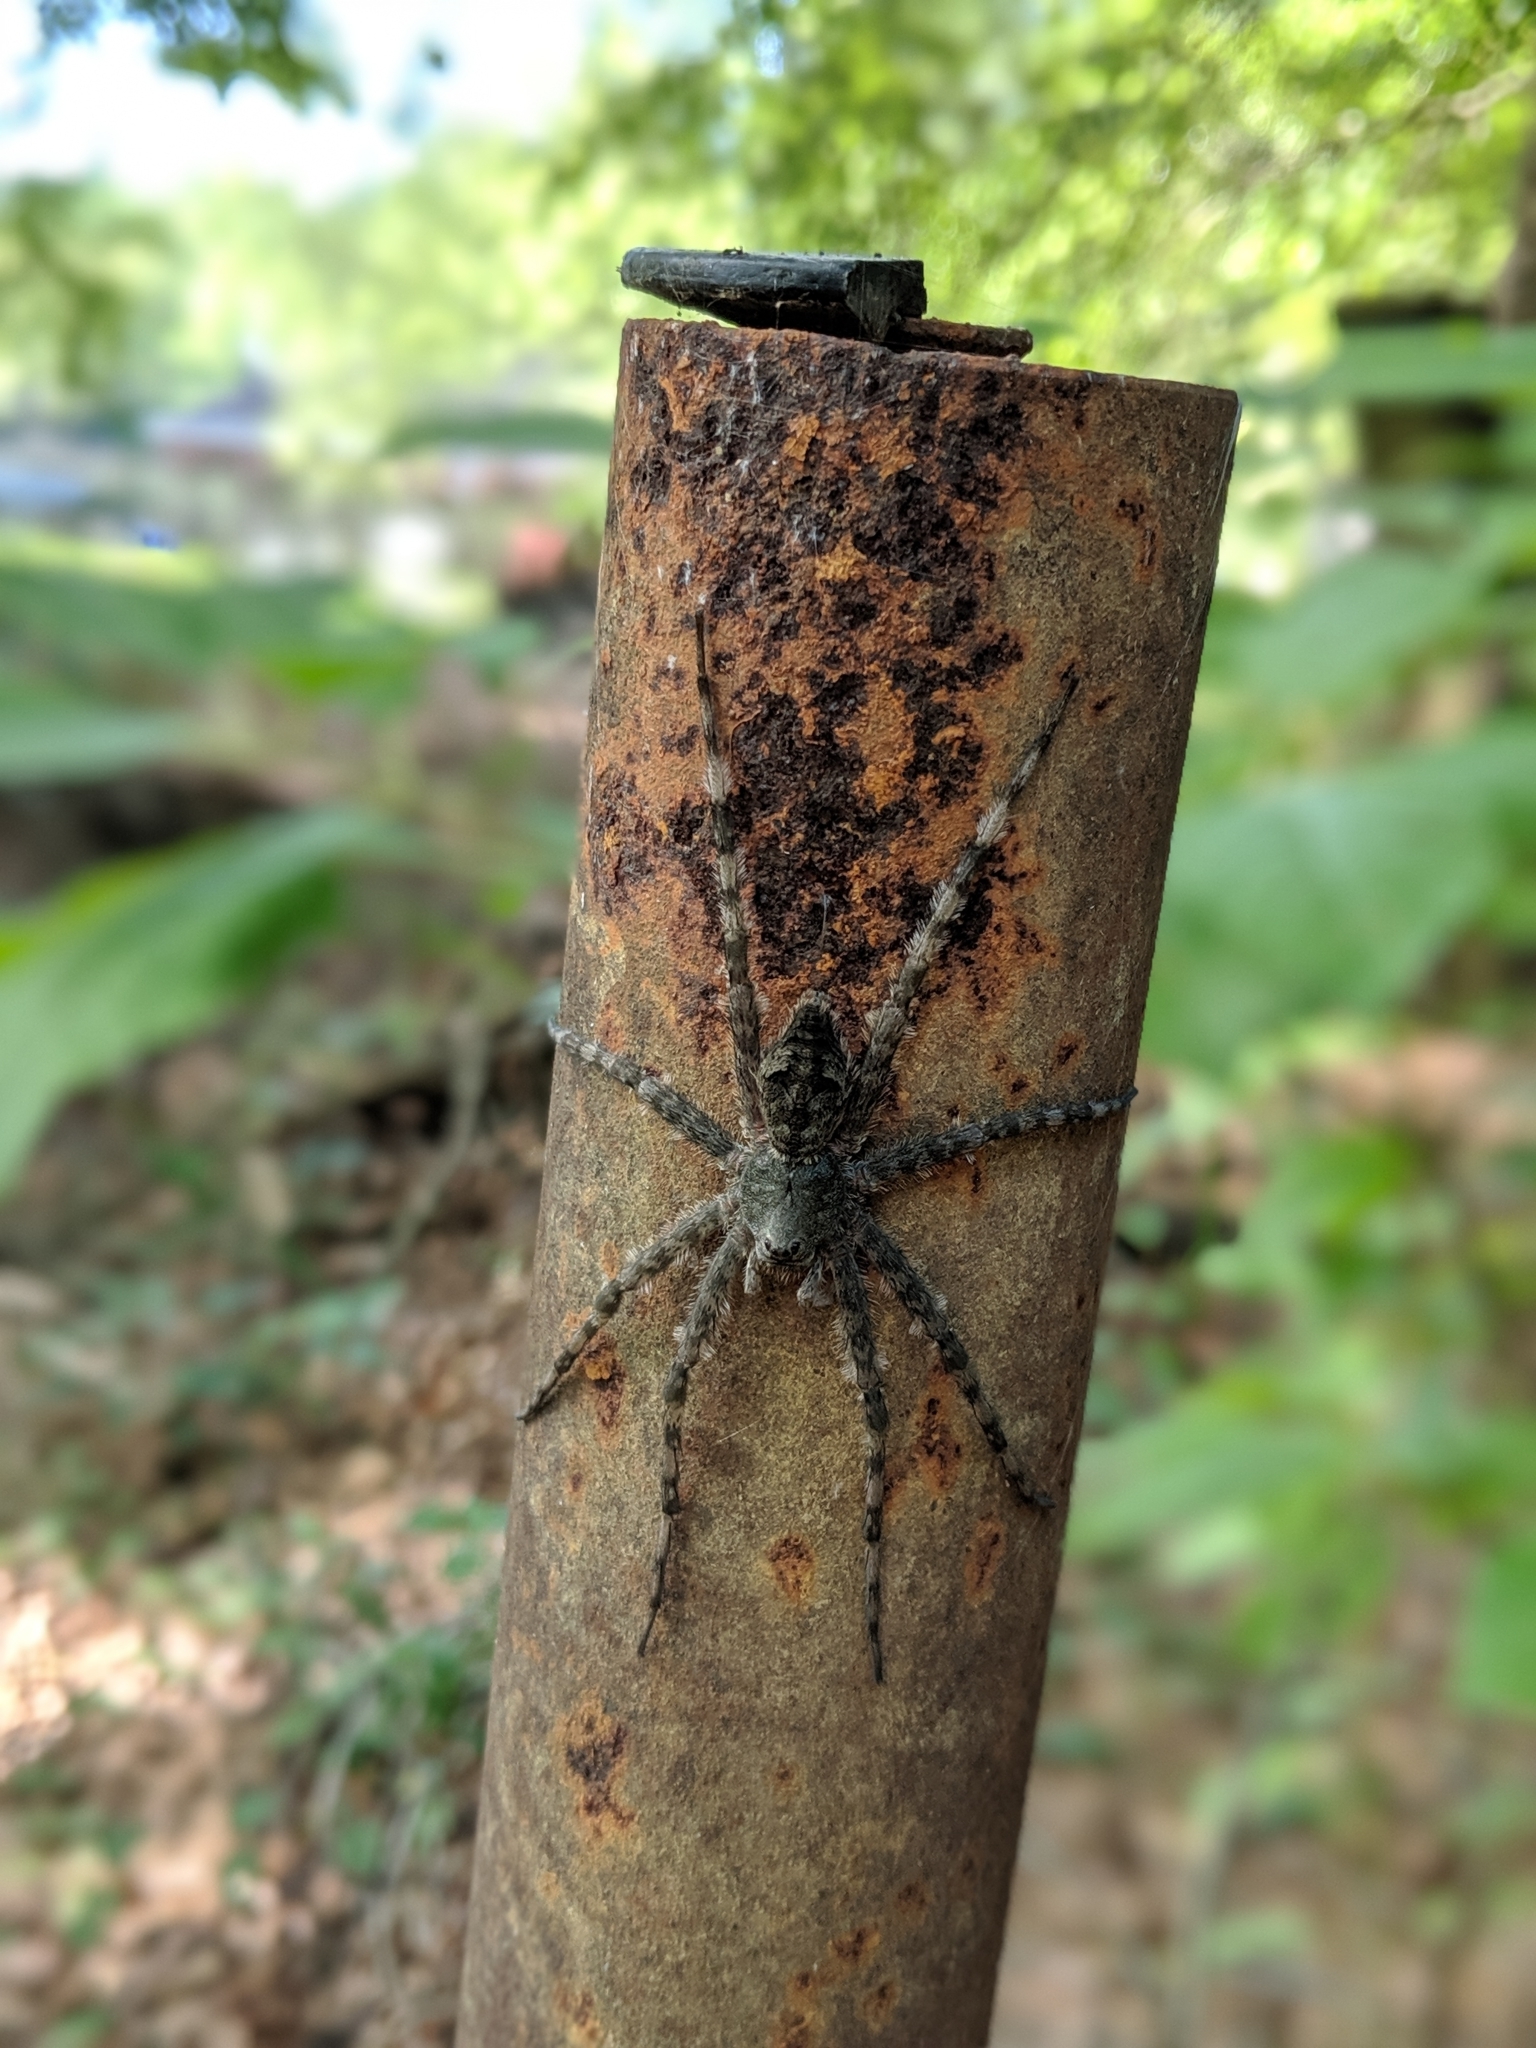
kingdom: Animalia
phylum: Arthropoda
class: Arachnida
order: Araneae
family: Pisauridae
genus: Dolomedes
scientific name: Dolomedes albineus
